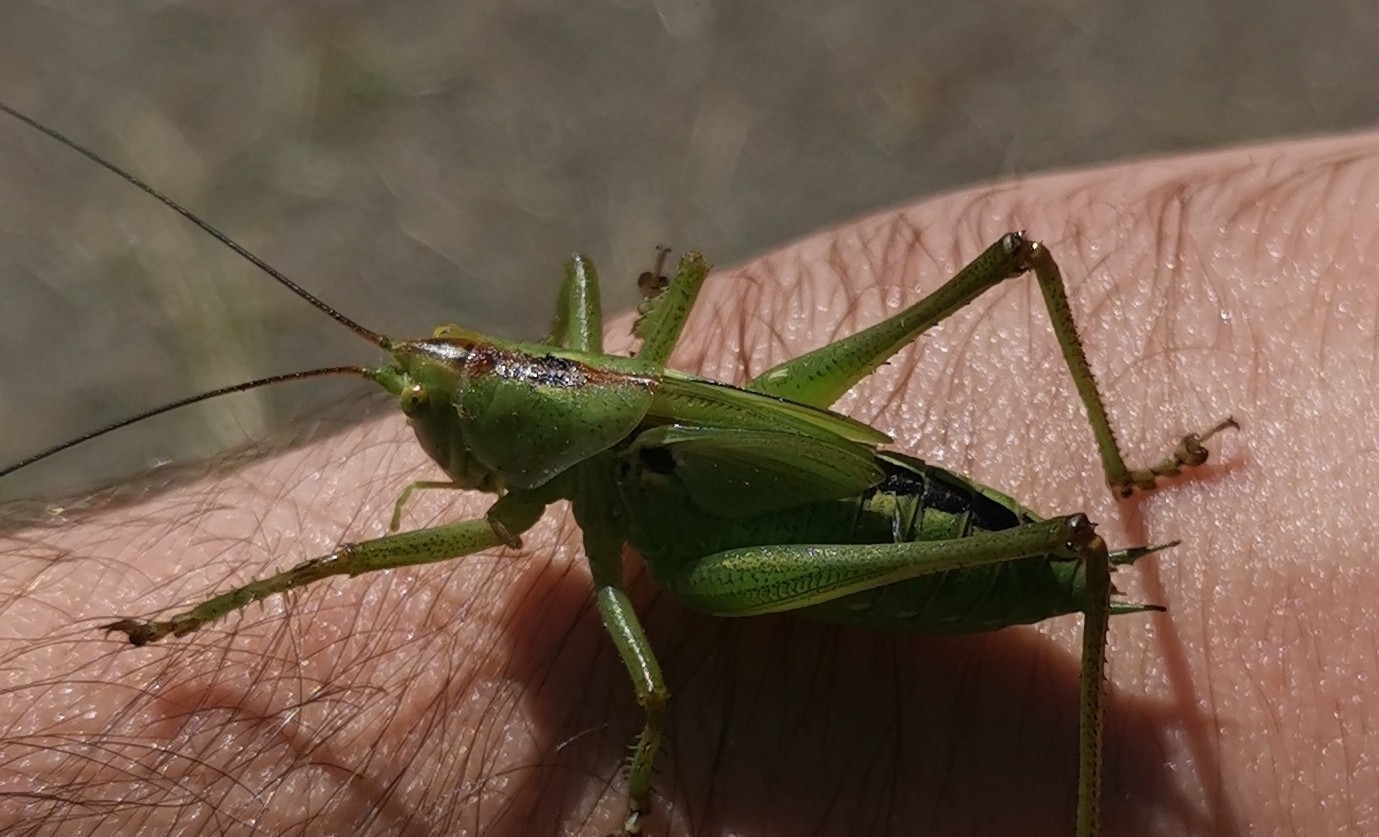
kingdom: Animalia
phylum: Arthropoda
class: Insecta
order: Orthoptera
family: Tettigoniidae
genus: Tettigonia
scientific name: Tettigonia viridissima
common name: Great green bush-cricket
